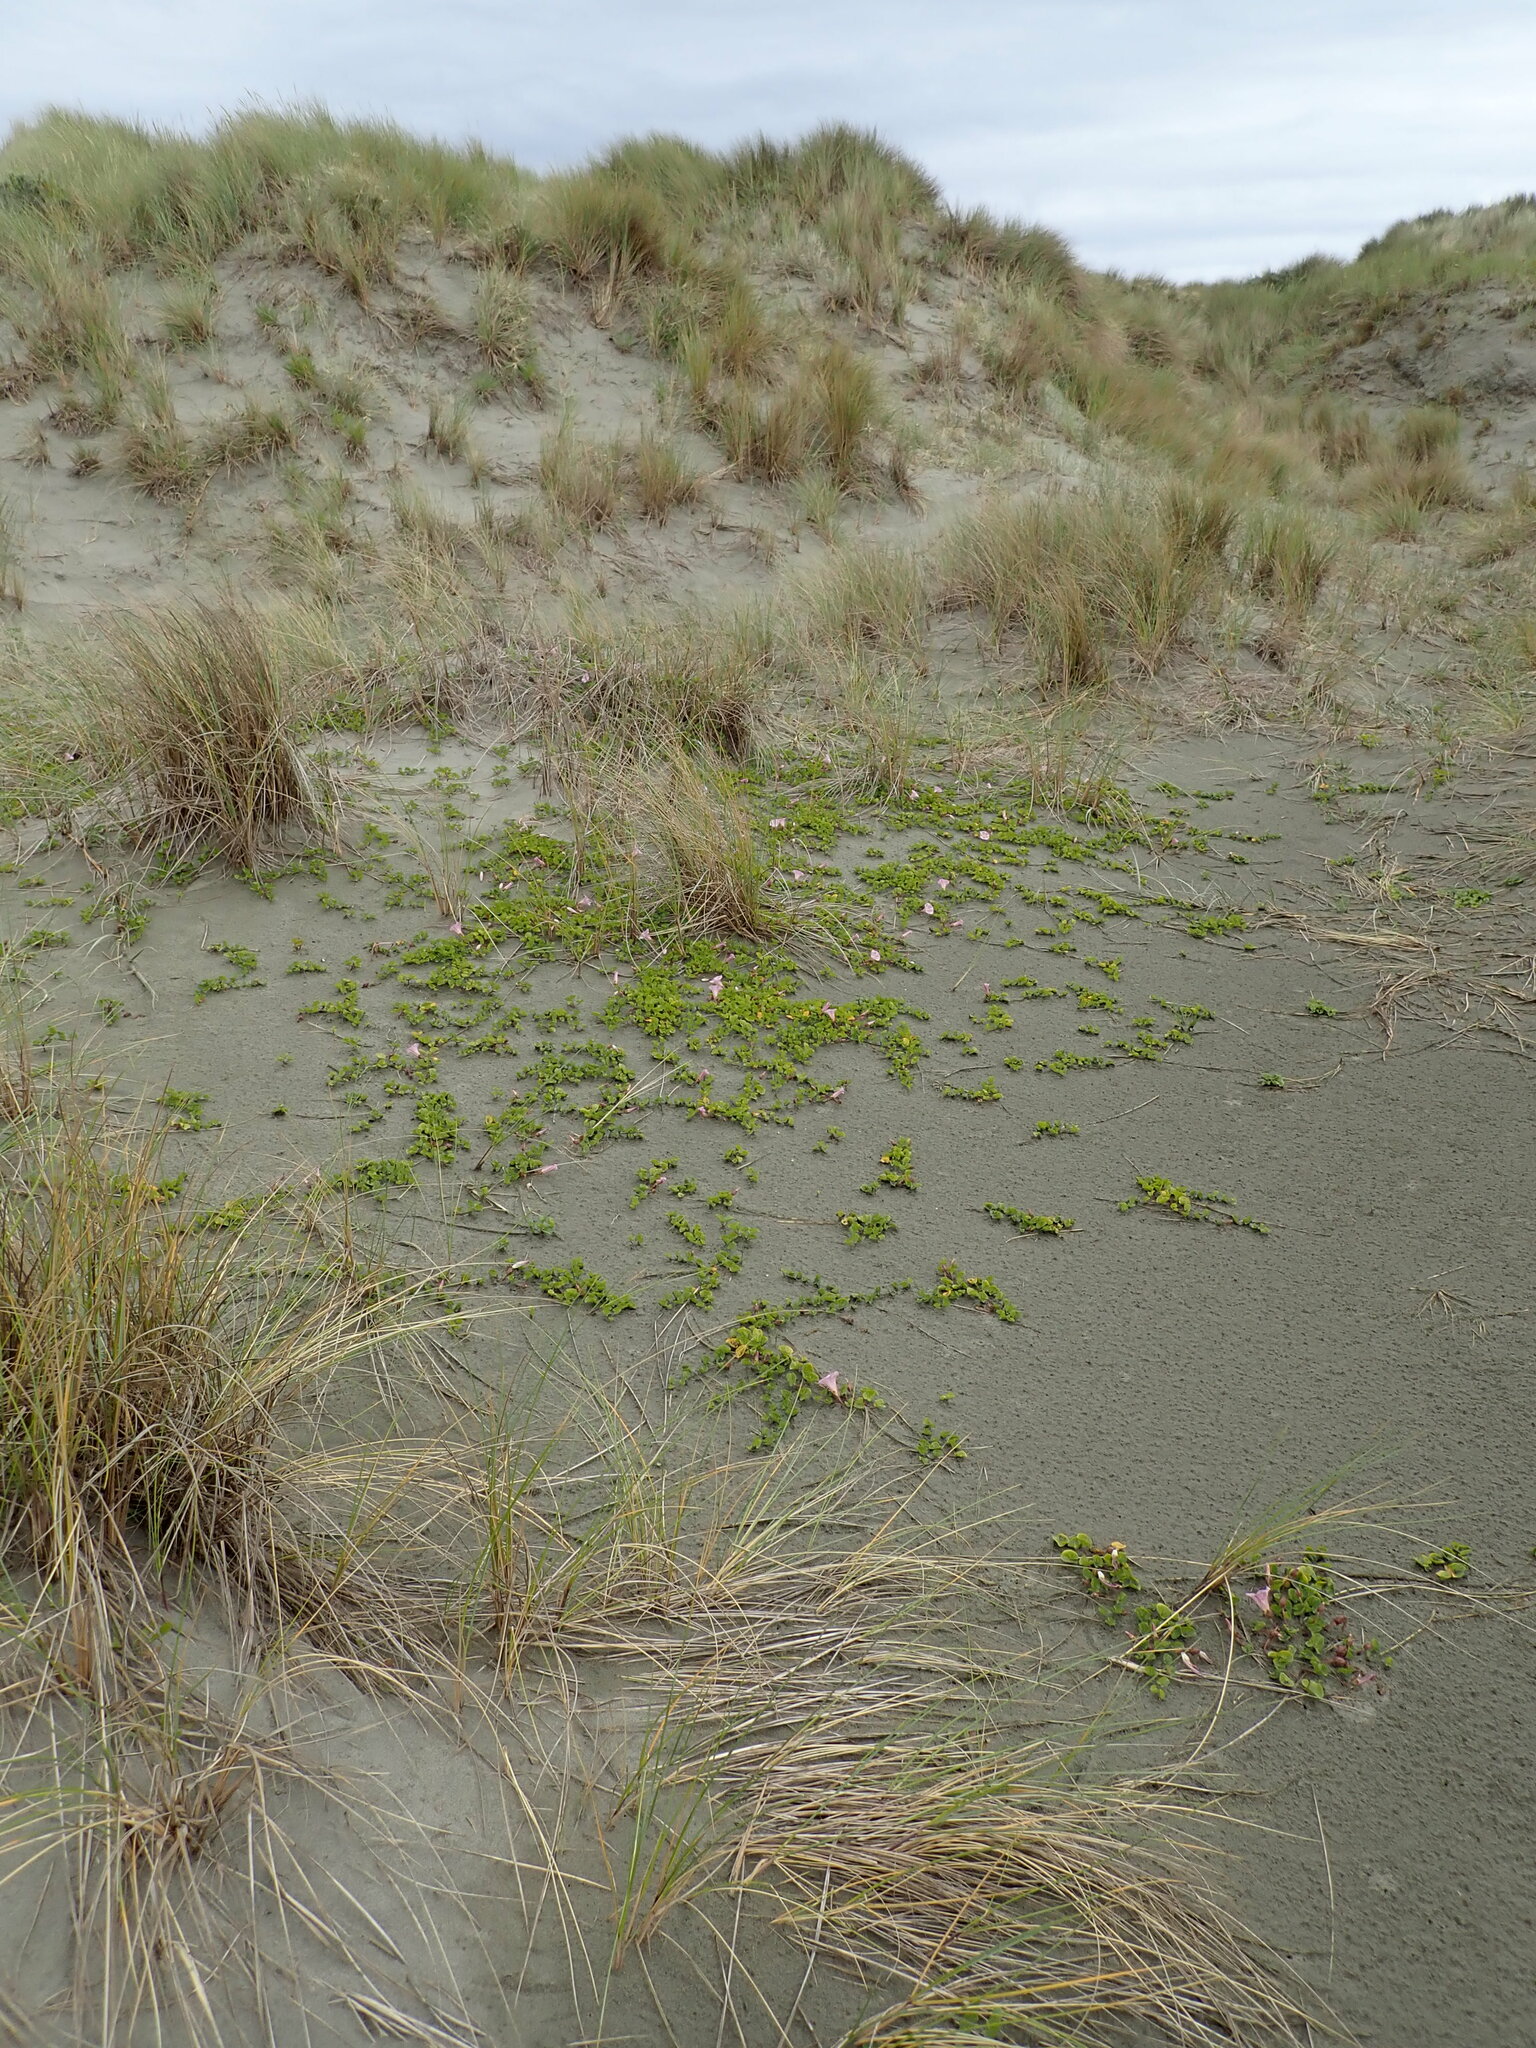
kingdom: Plantae
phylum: Tracheophyta
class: Magnoliopsida
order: Solanales
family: Convolvulaceae
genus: Calystegia
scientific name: Calystegia soldanella
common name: Sea bindweed
